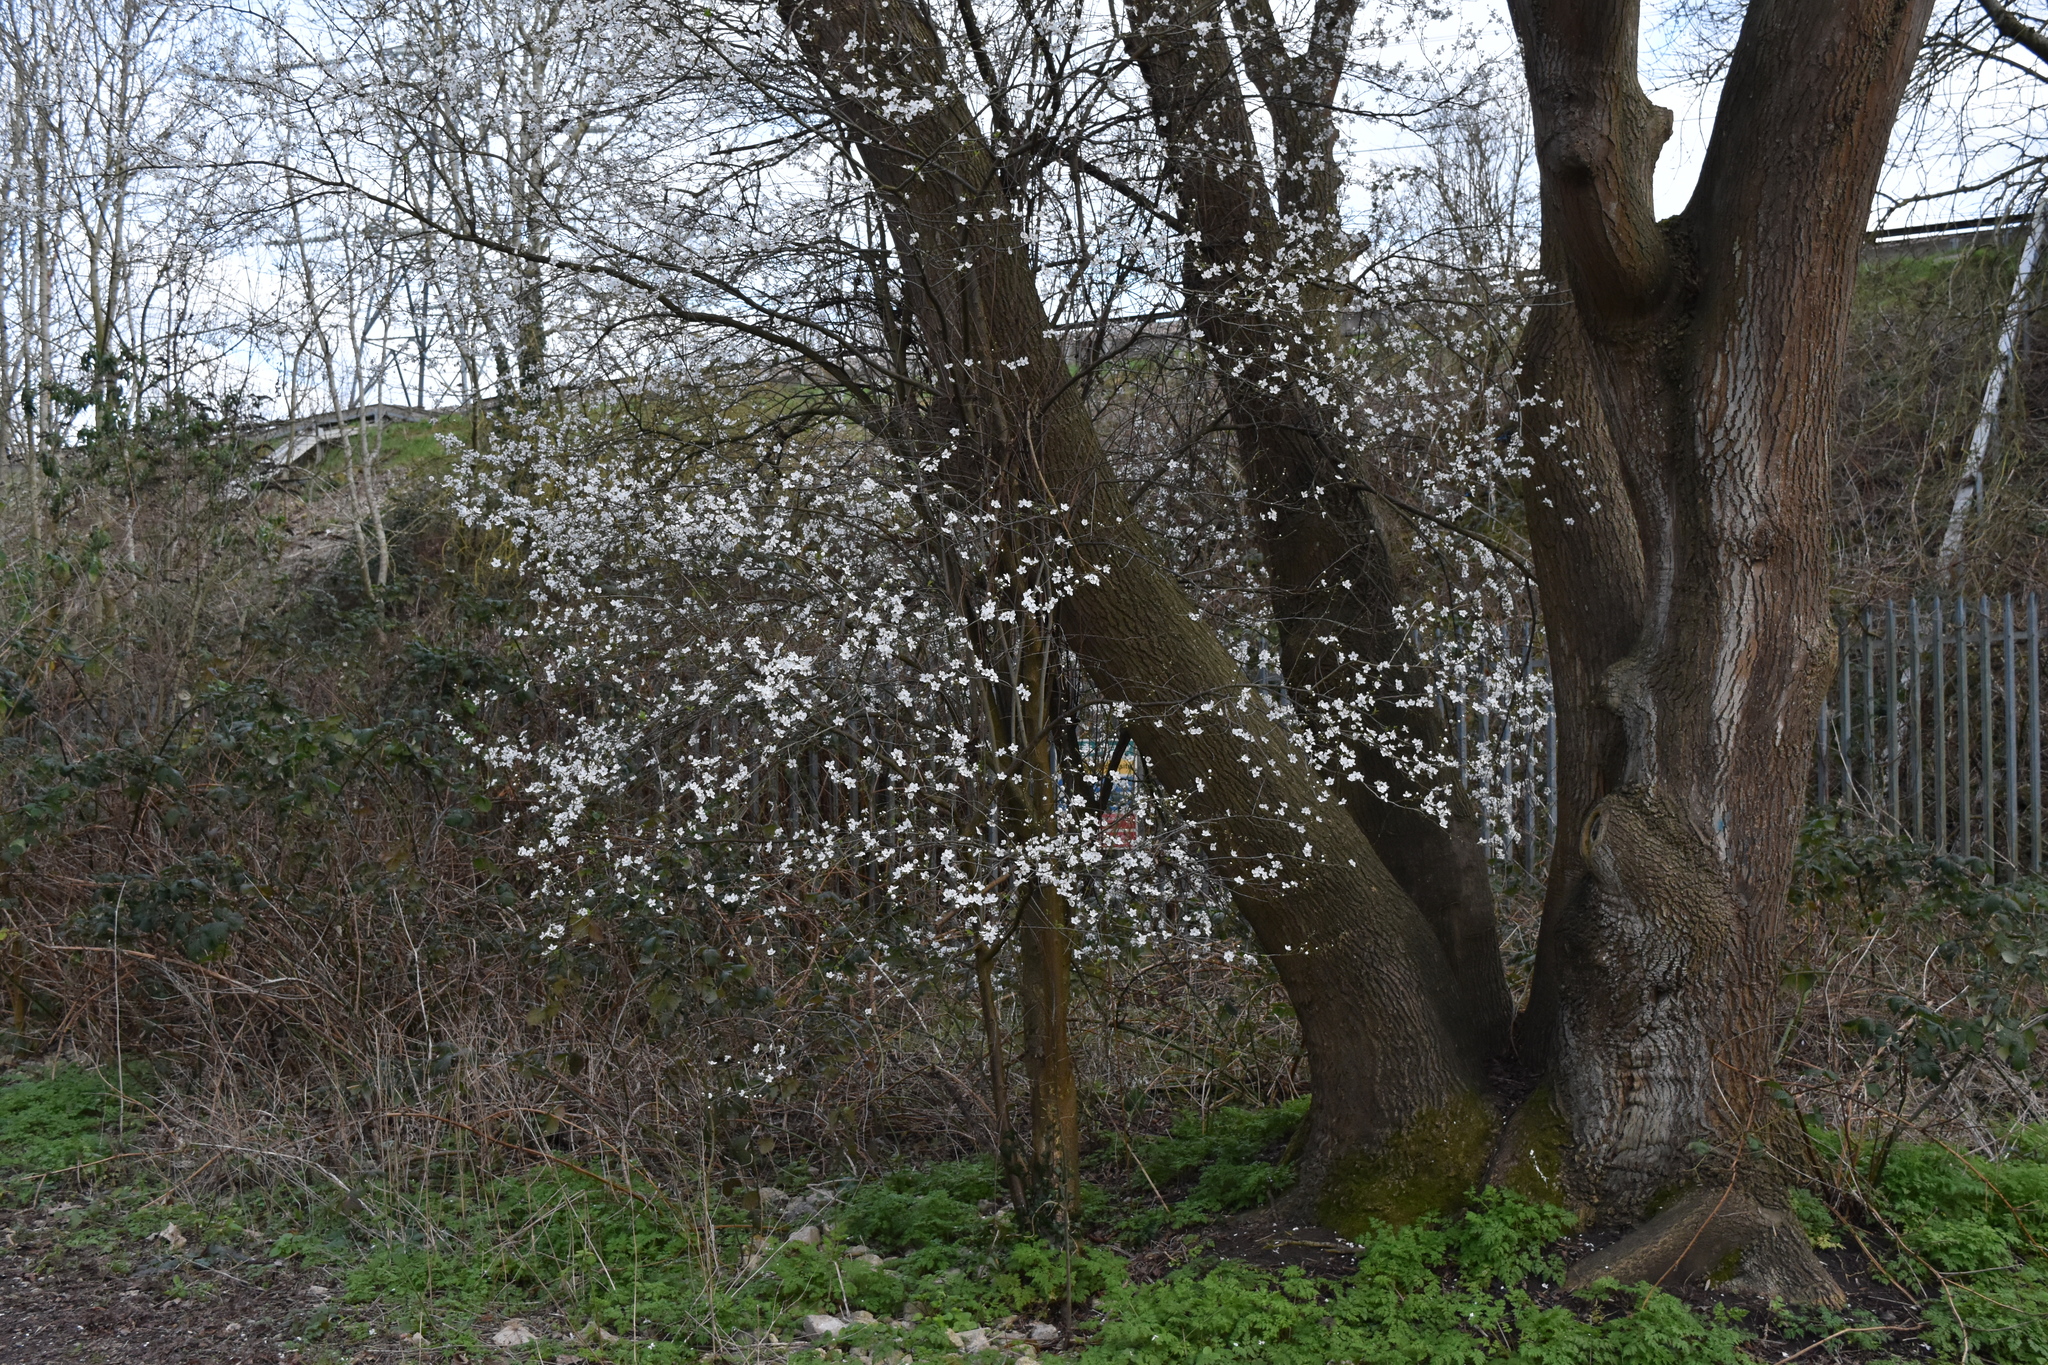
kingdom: Plantae
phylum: Tracheophyta
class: Magnoliopsida
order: Rosales
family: Rosaceae
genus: Prunus
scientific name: Prunus cerasifera
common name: Cherry plum
